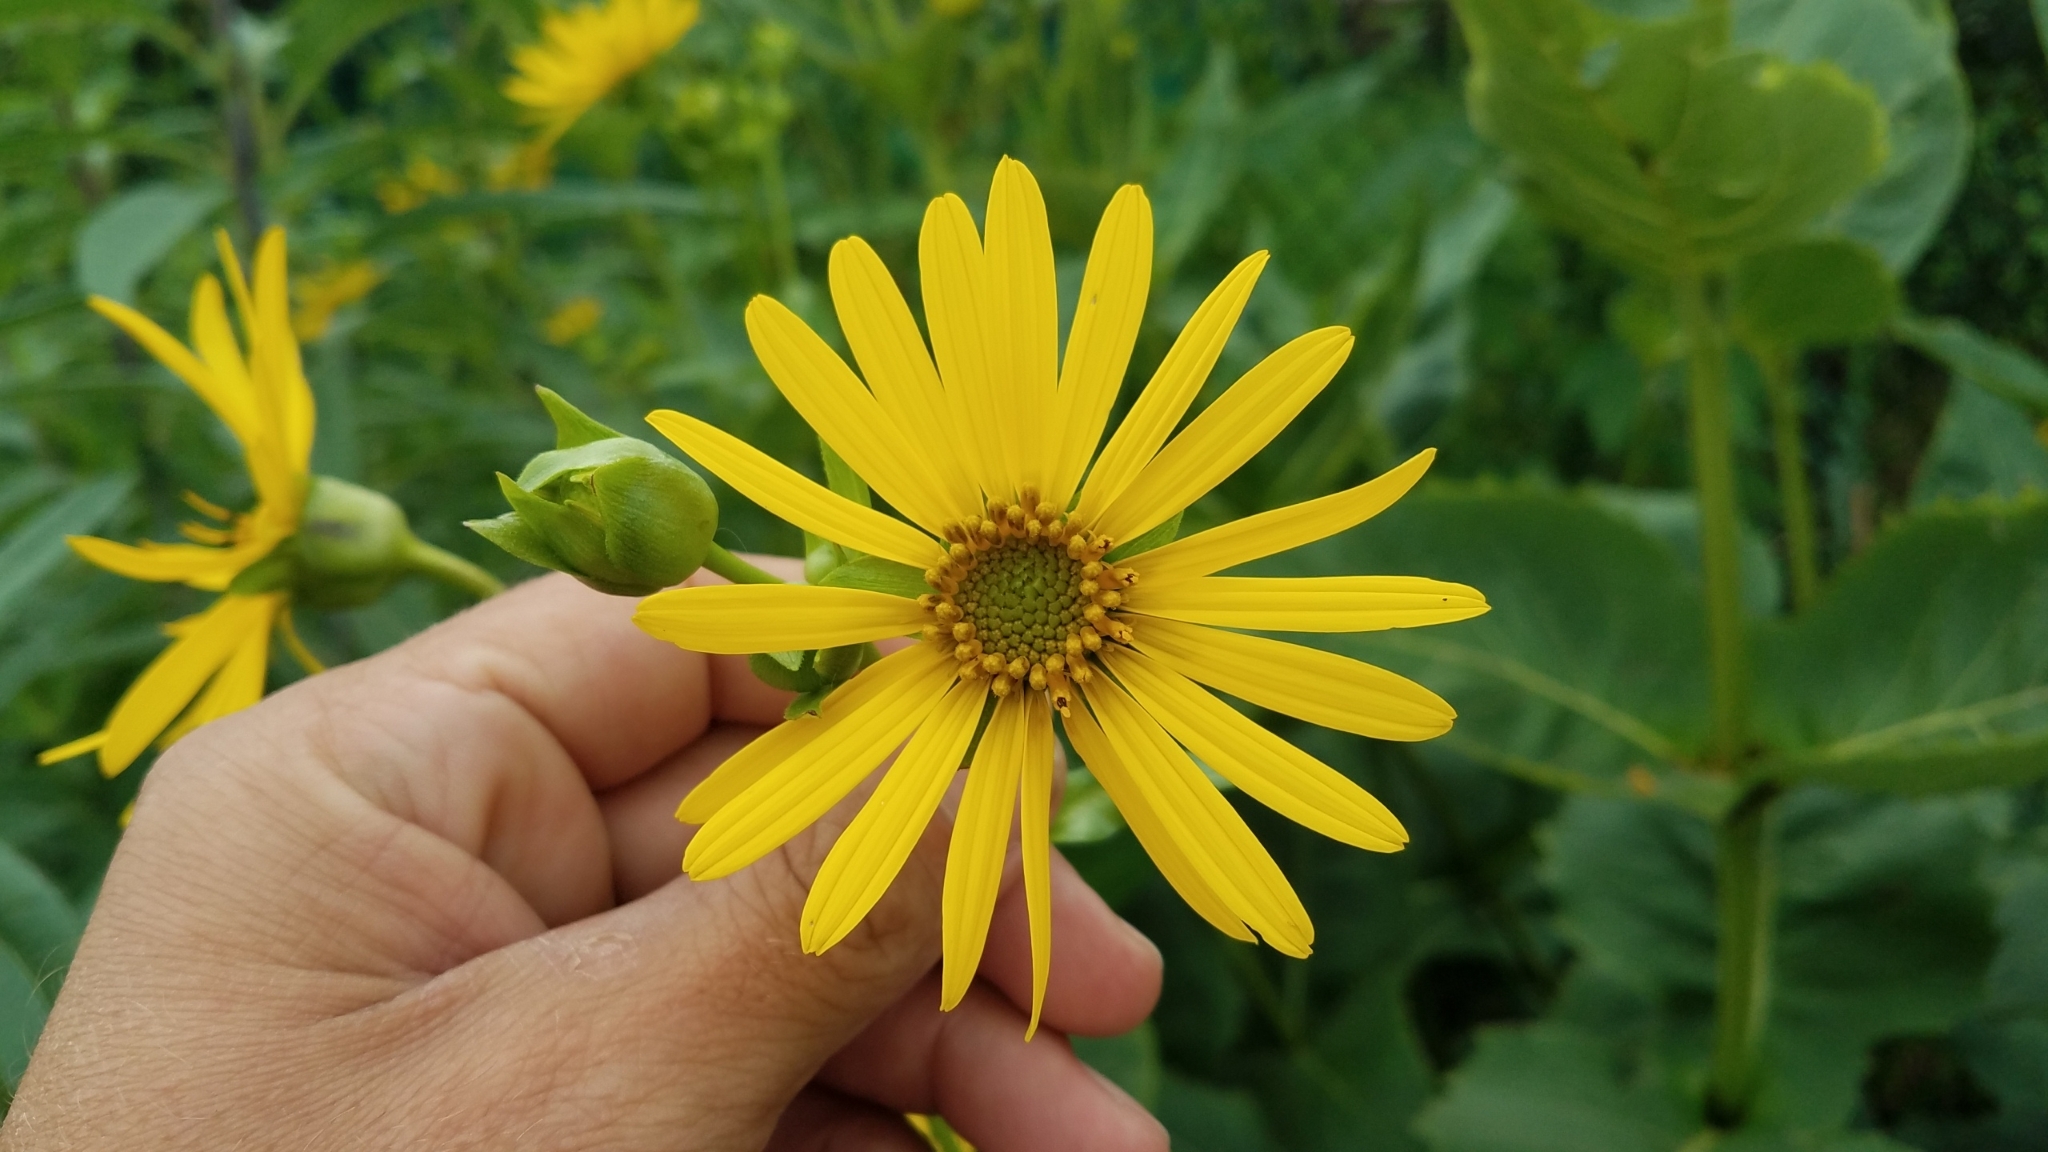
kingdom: Plantae
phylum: Tracheophyta
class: Magnoliopsida
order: Asterales
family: Asteraceae
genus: Silphium
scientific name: Silphium perfoliatum
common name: Cup-plant
